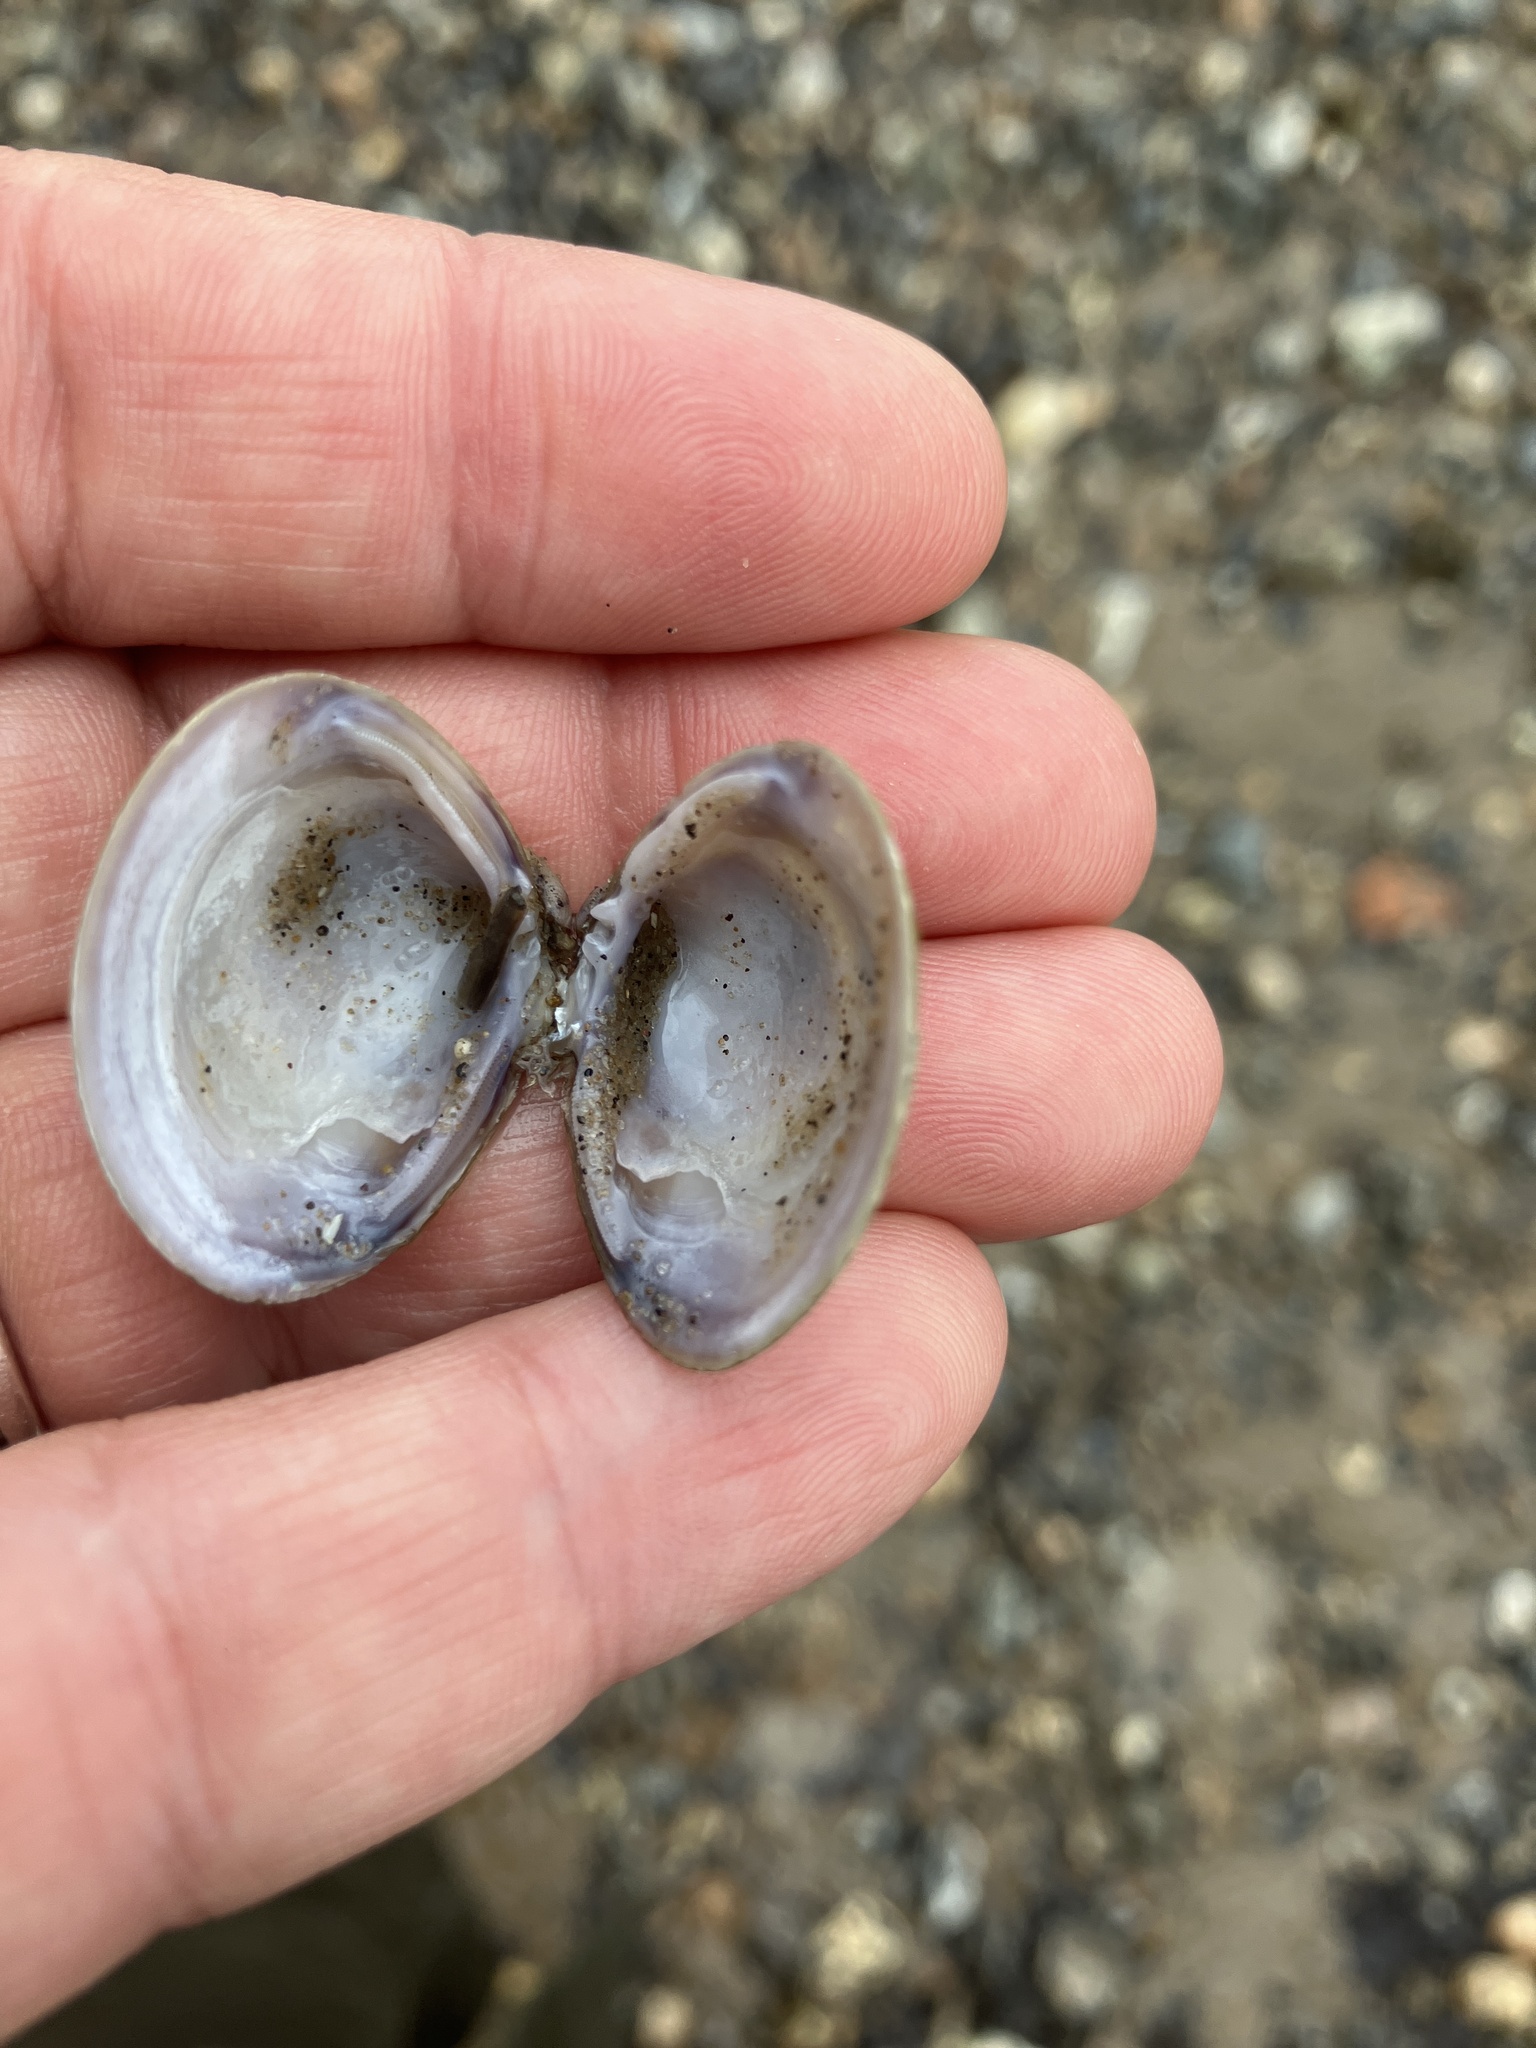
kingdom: Animalia
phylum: Mollusca
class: Bivalvia
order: Venerida
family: Cyrenidae
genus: Corbicula
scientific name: Corbicula fluminea
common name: Asian clam
